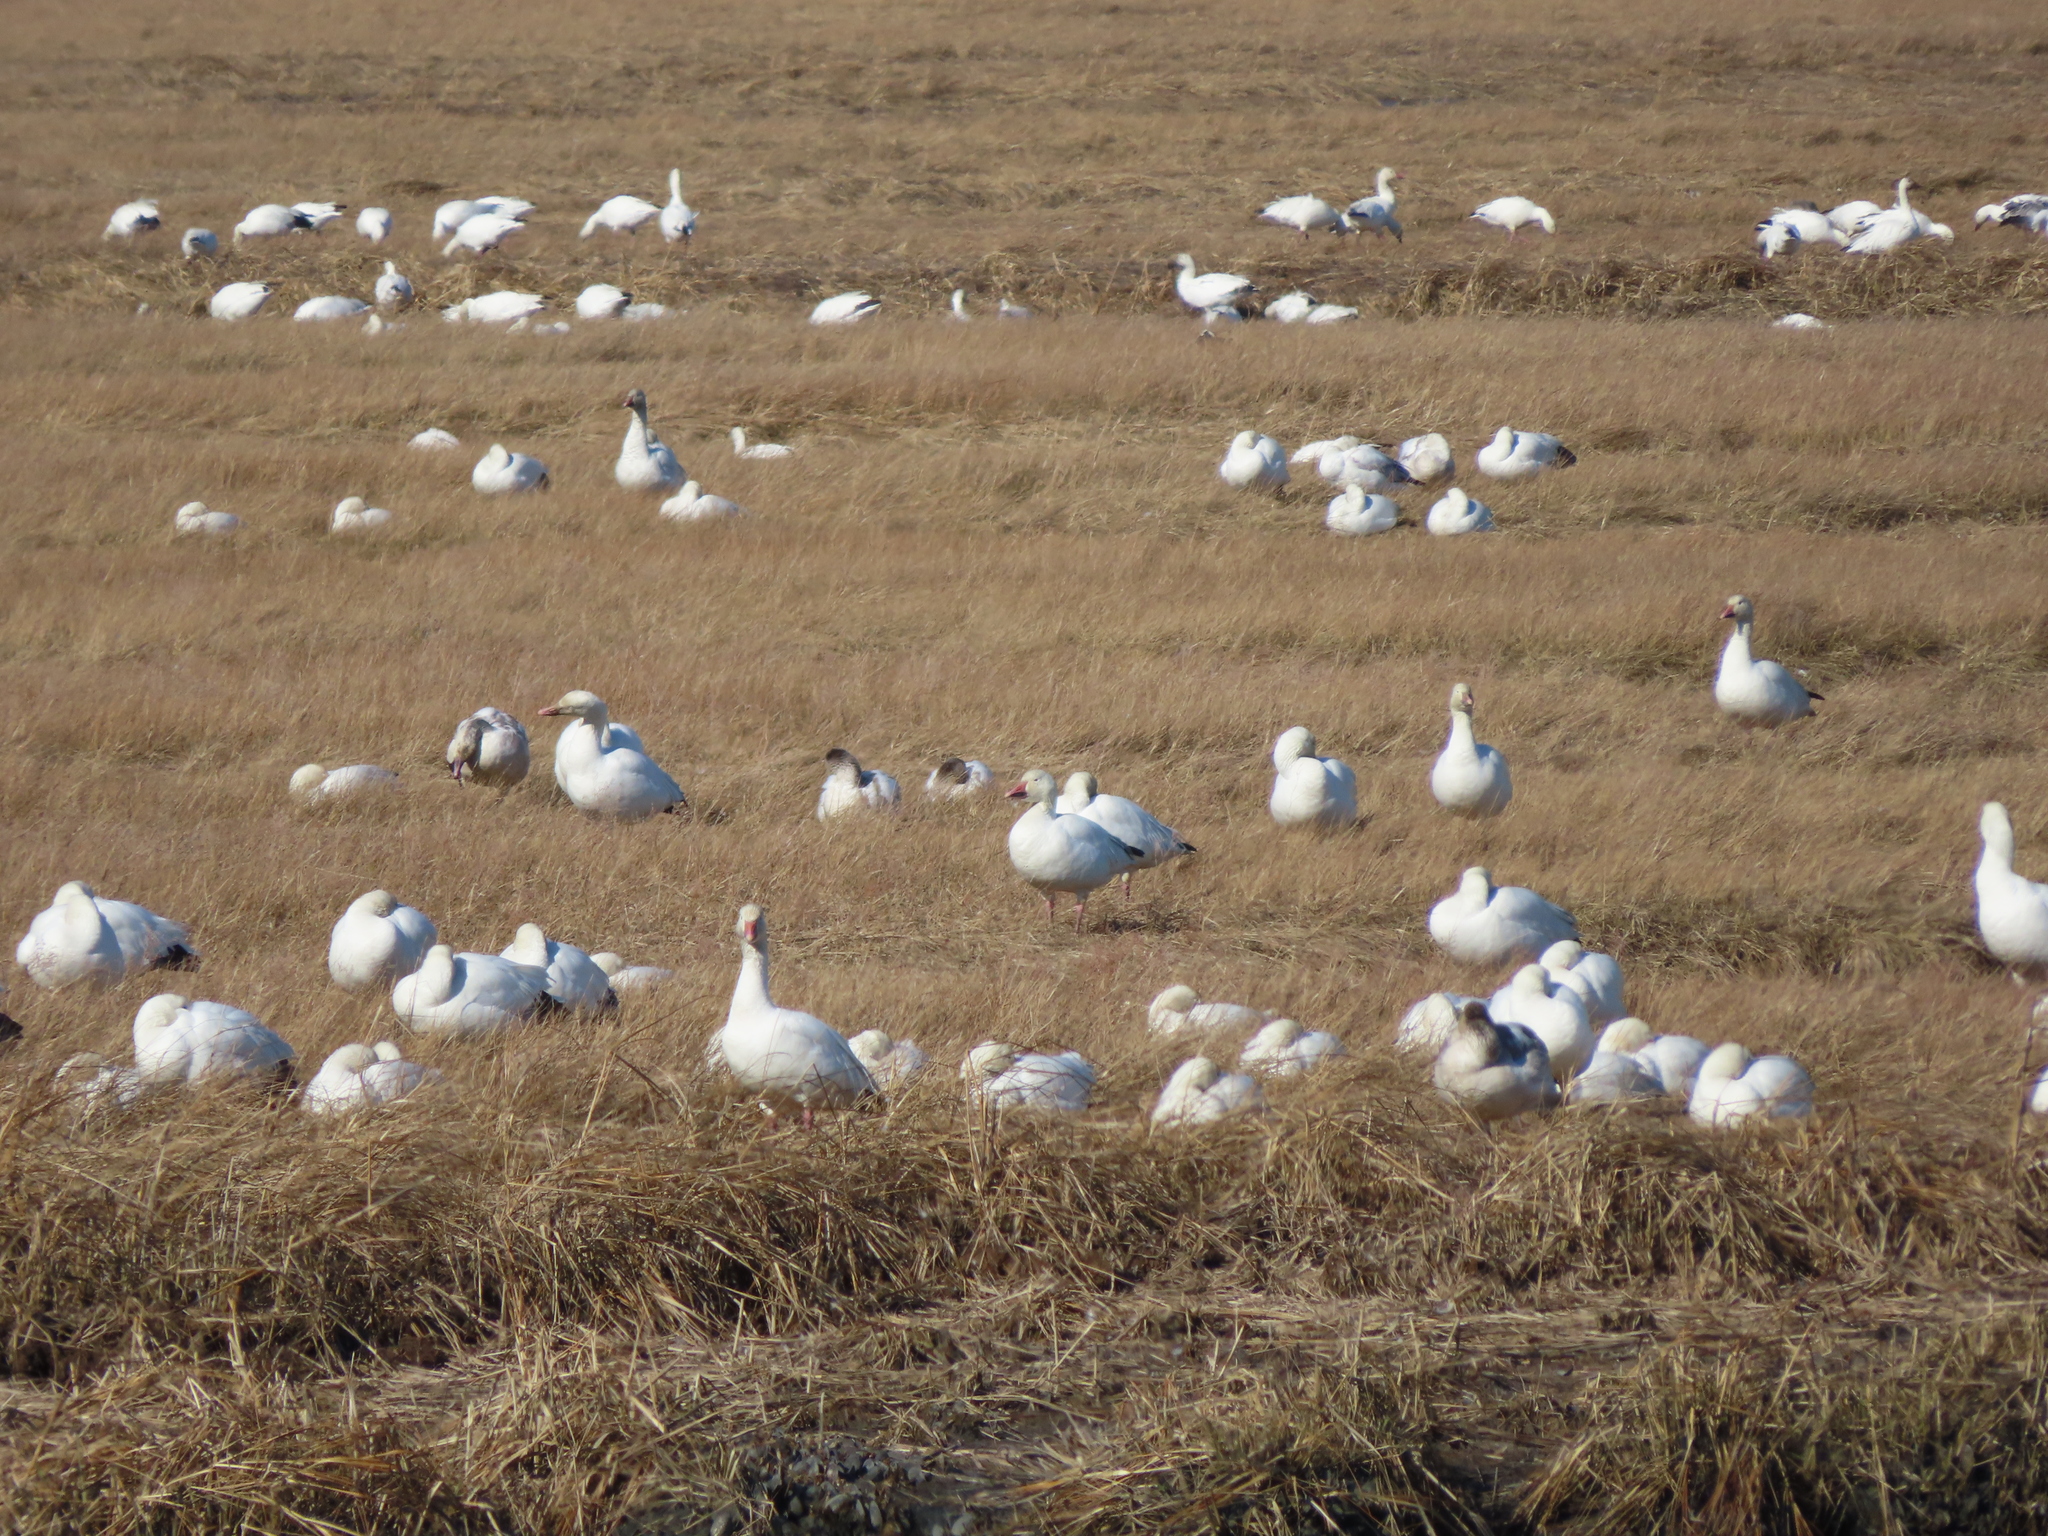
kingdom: Animalia
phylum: Chordata
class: Aves
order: Anseriformes
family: Anatidae
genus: Anser
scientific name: Anser caerulescens
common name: Snow goose
